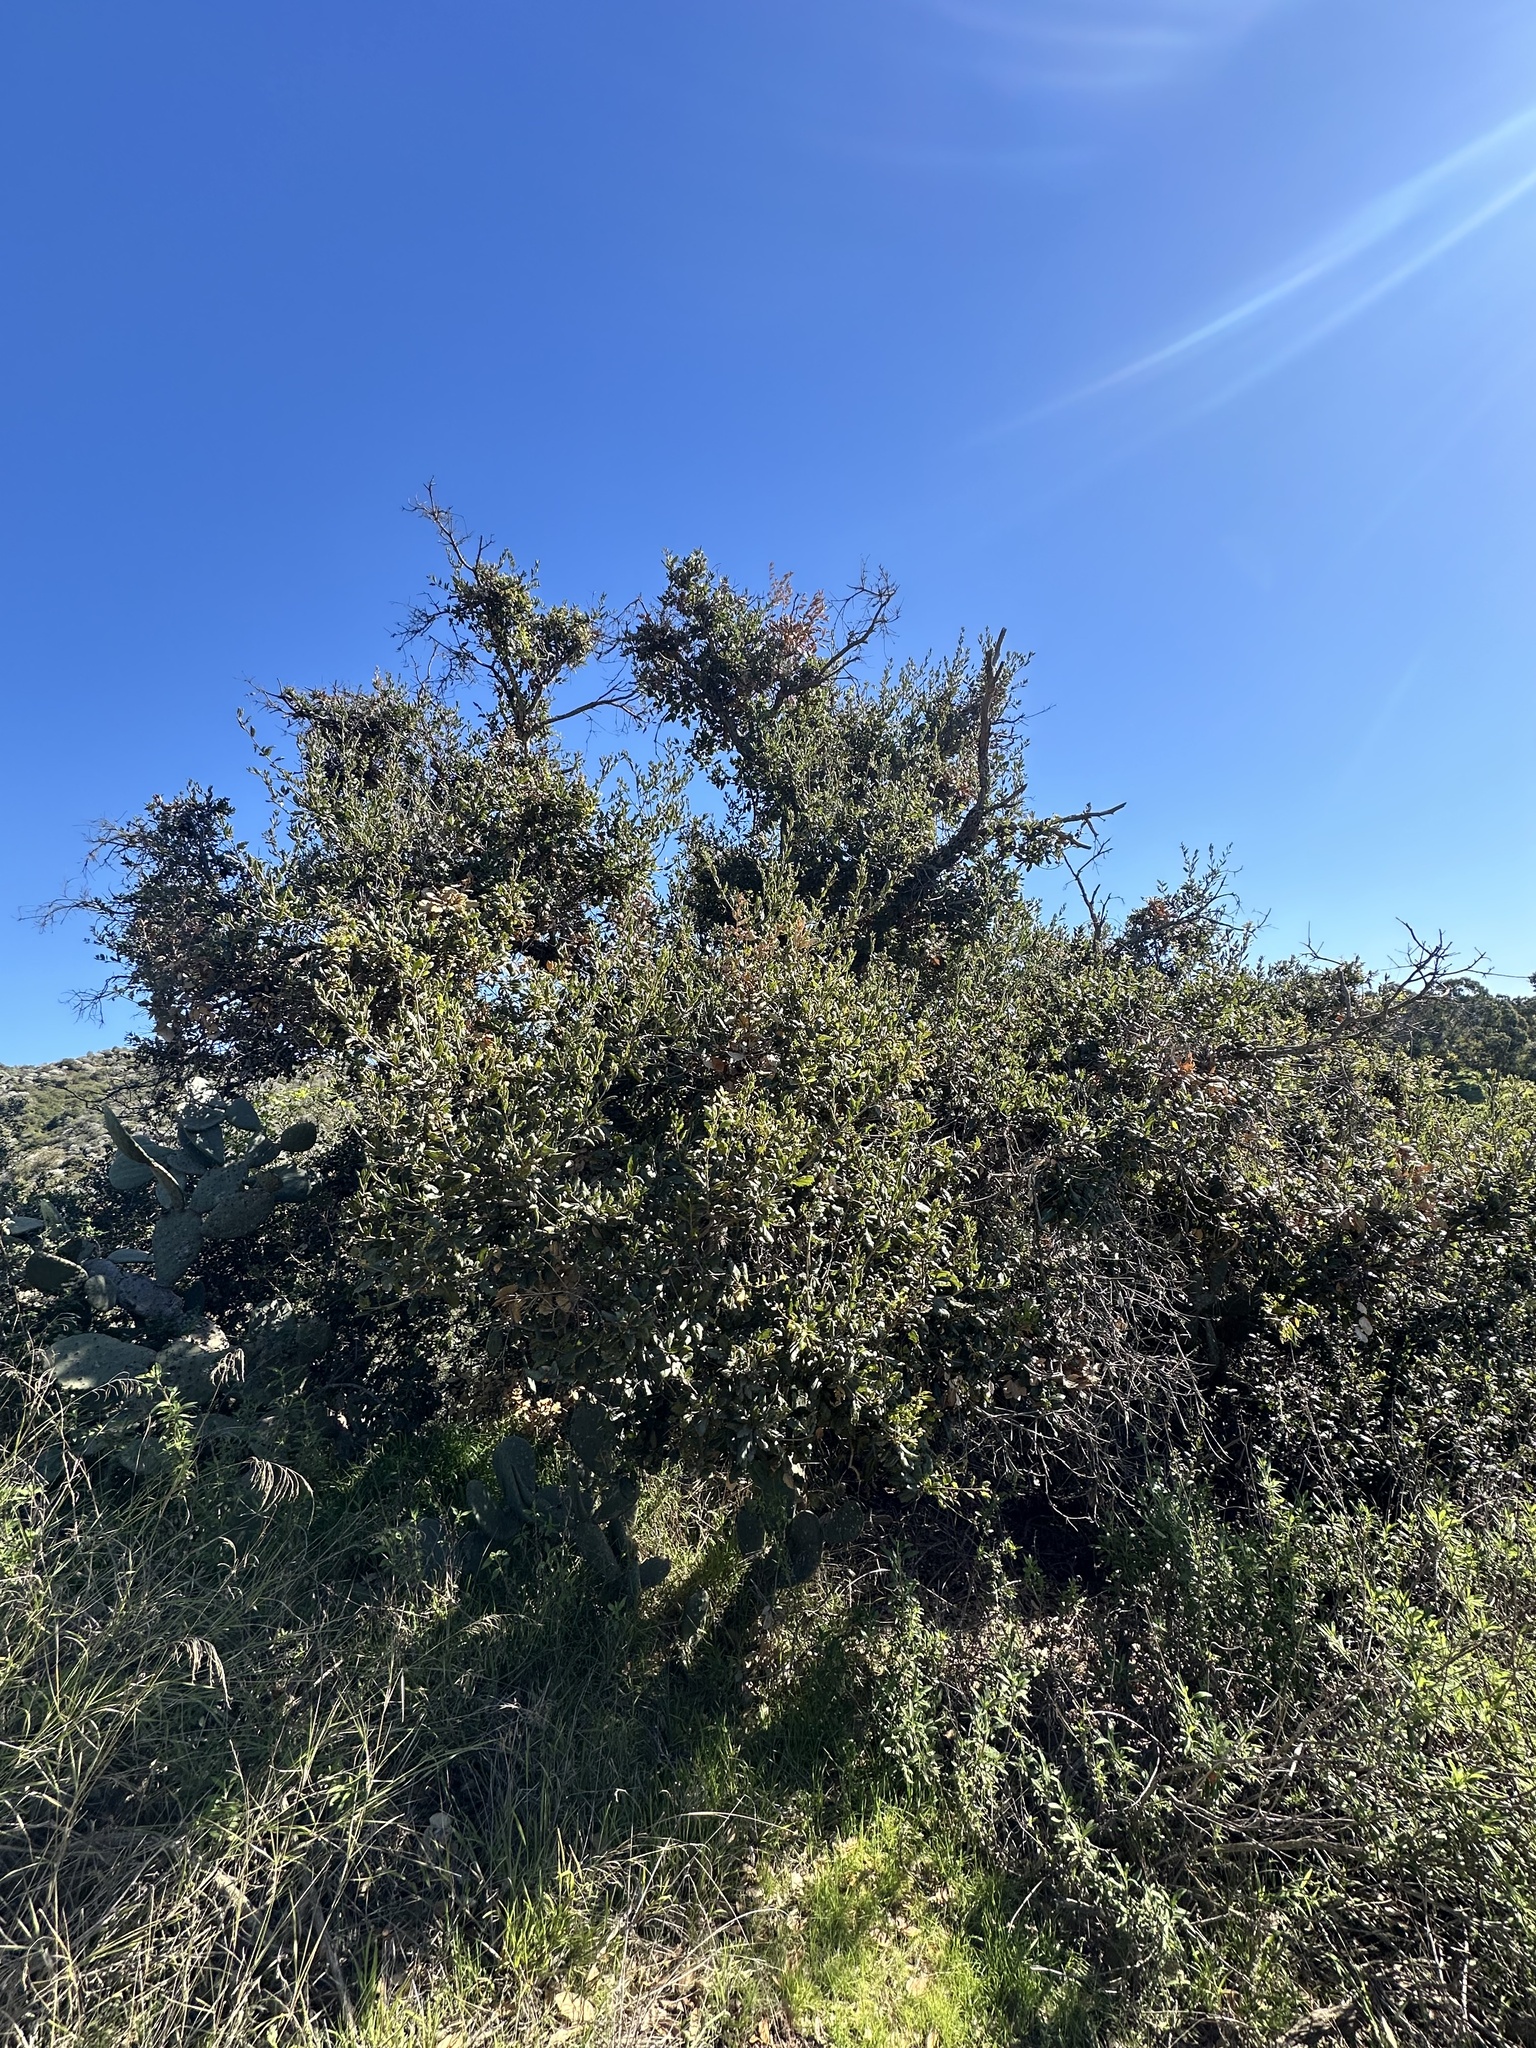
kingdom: Plantae
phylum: Tracheophyta
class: Magnoliopsida
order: Fagales
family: Fagaceae
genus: Quercus
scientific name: Quercus agrifolia
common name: California live oak
